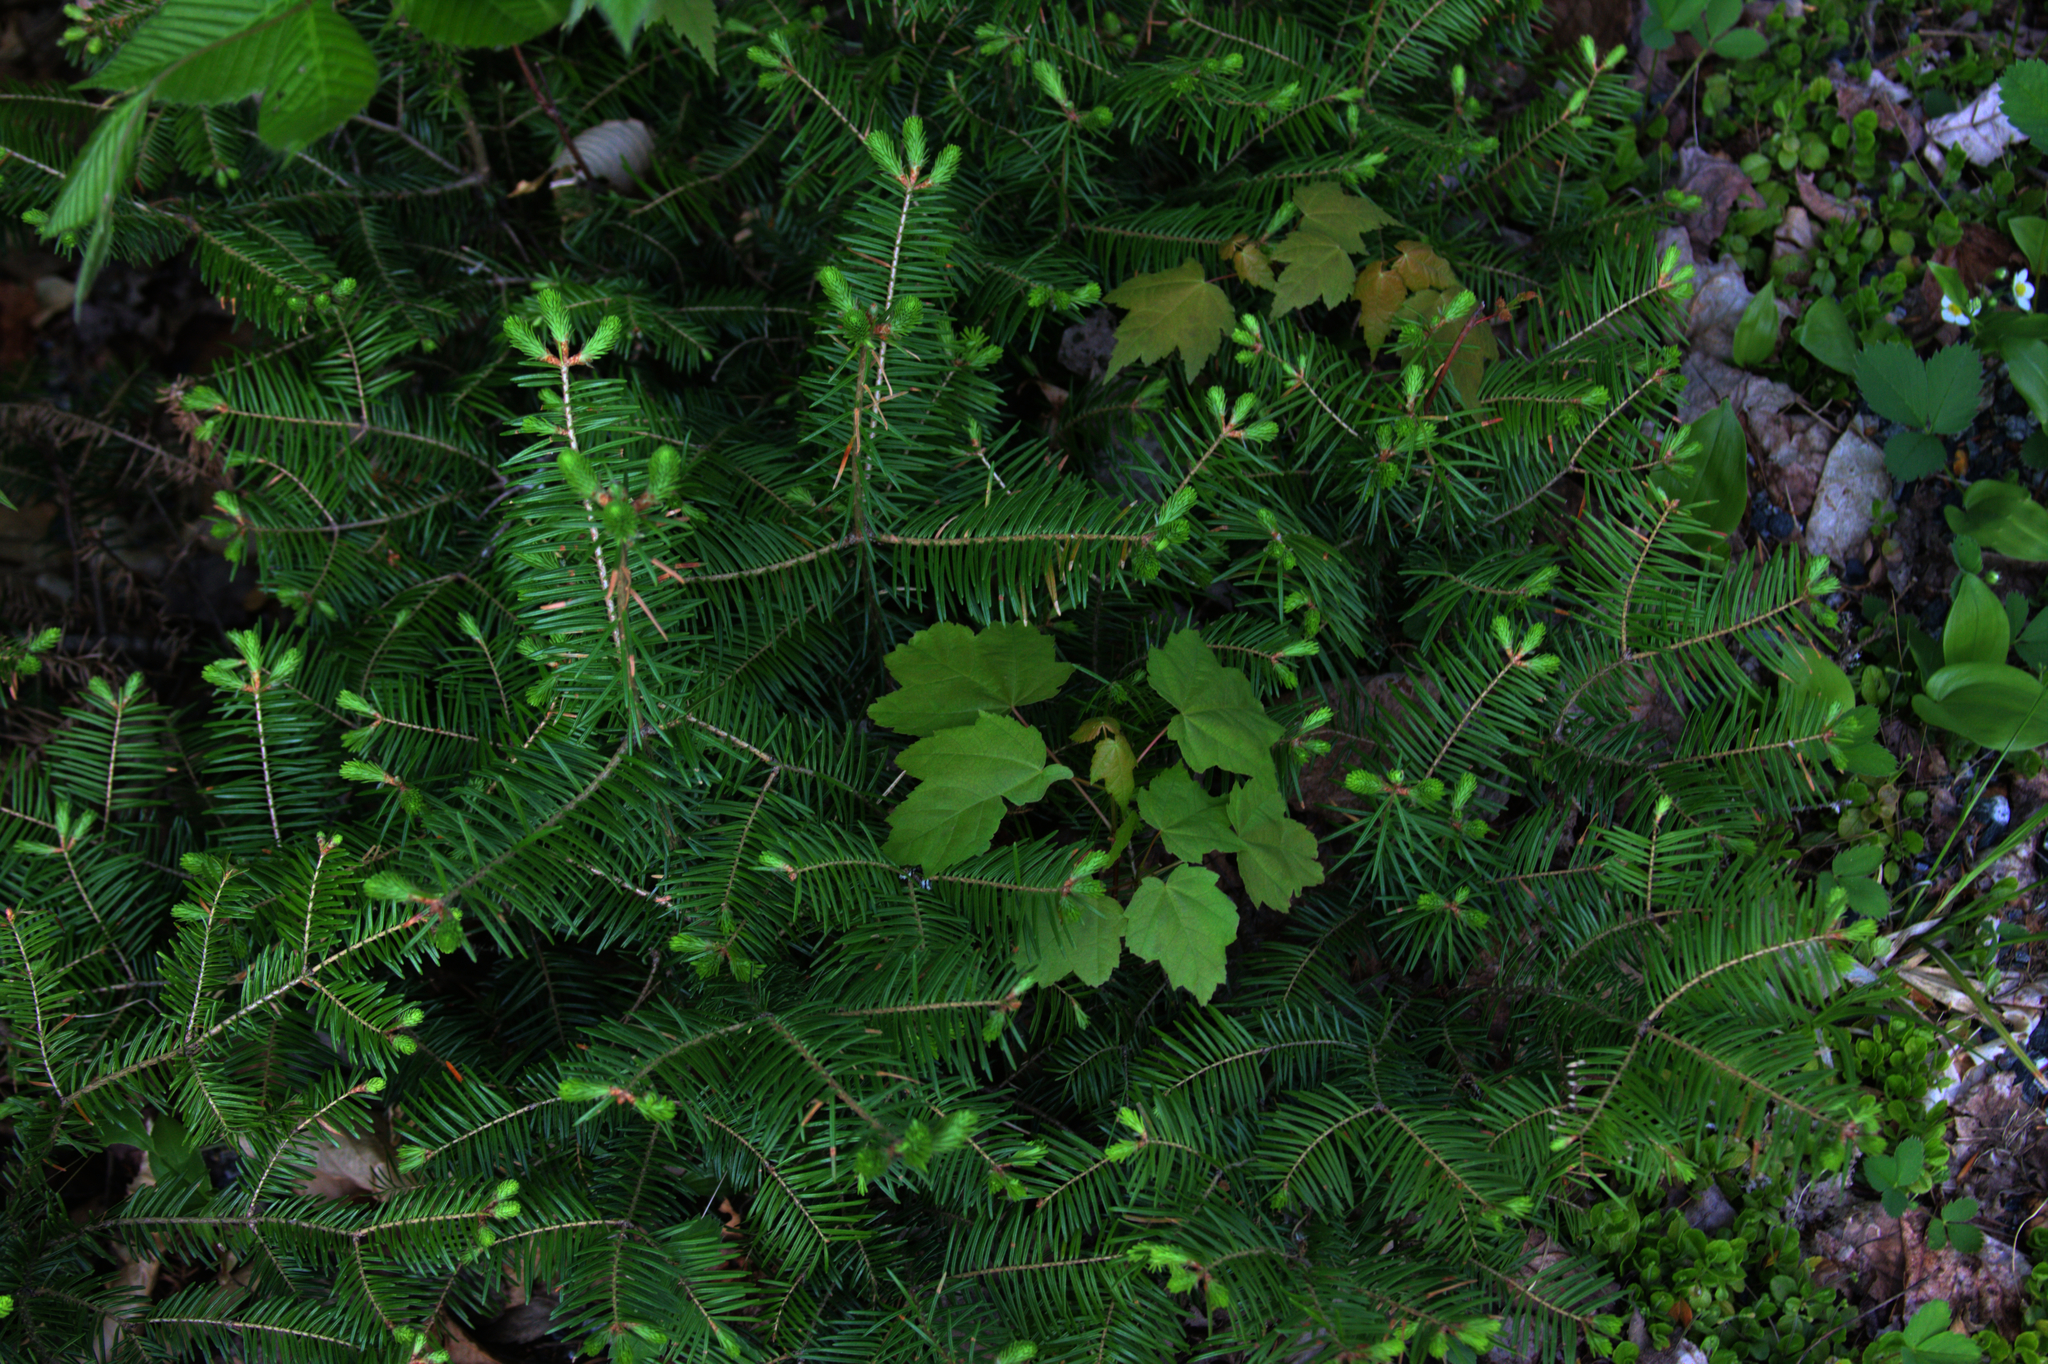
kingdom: Plantae
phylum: Tracheophyta
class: Pinopsida
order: Pinales
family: Pinaceae
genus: Abies
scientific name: Abies balsamea
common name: Balsam fir
